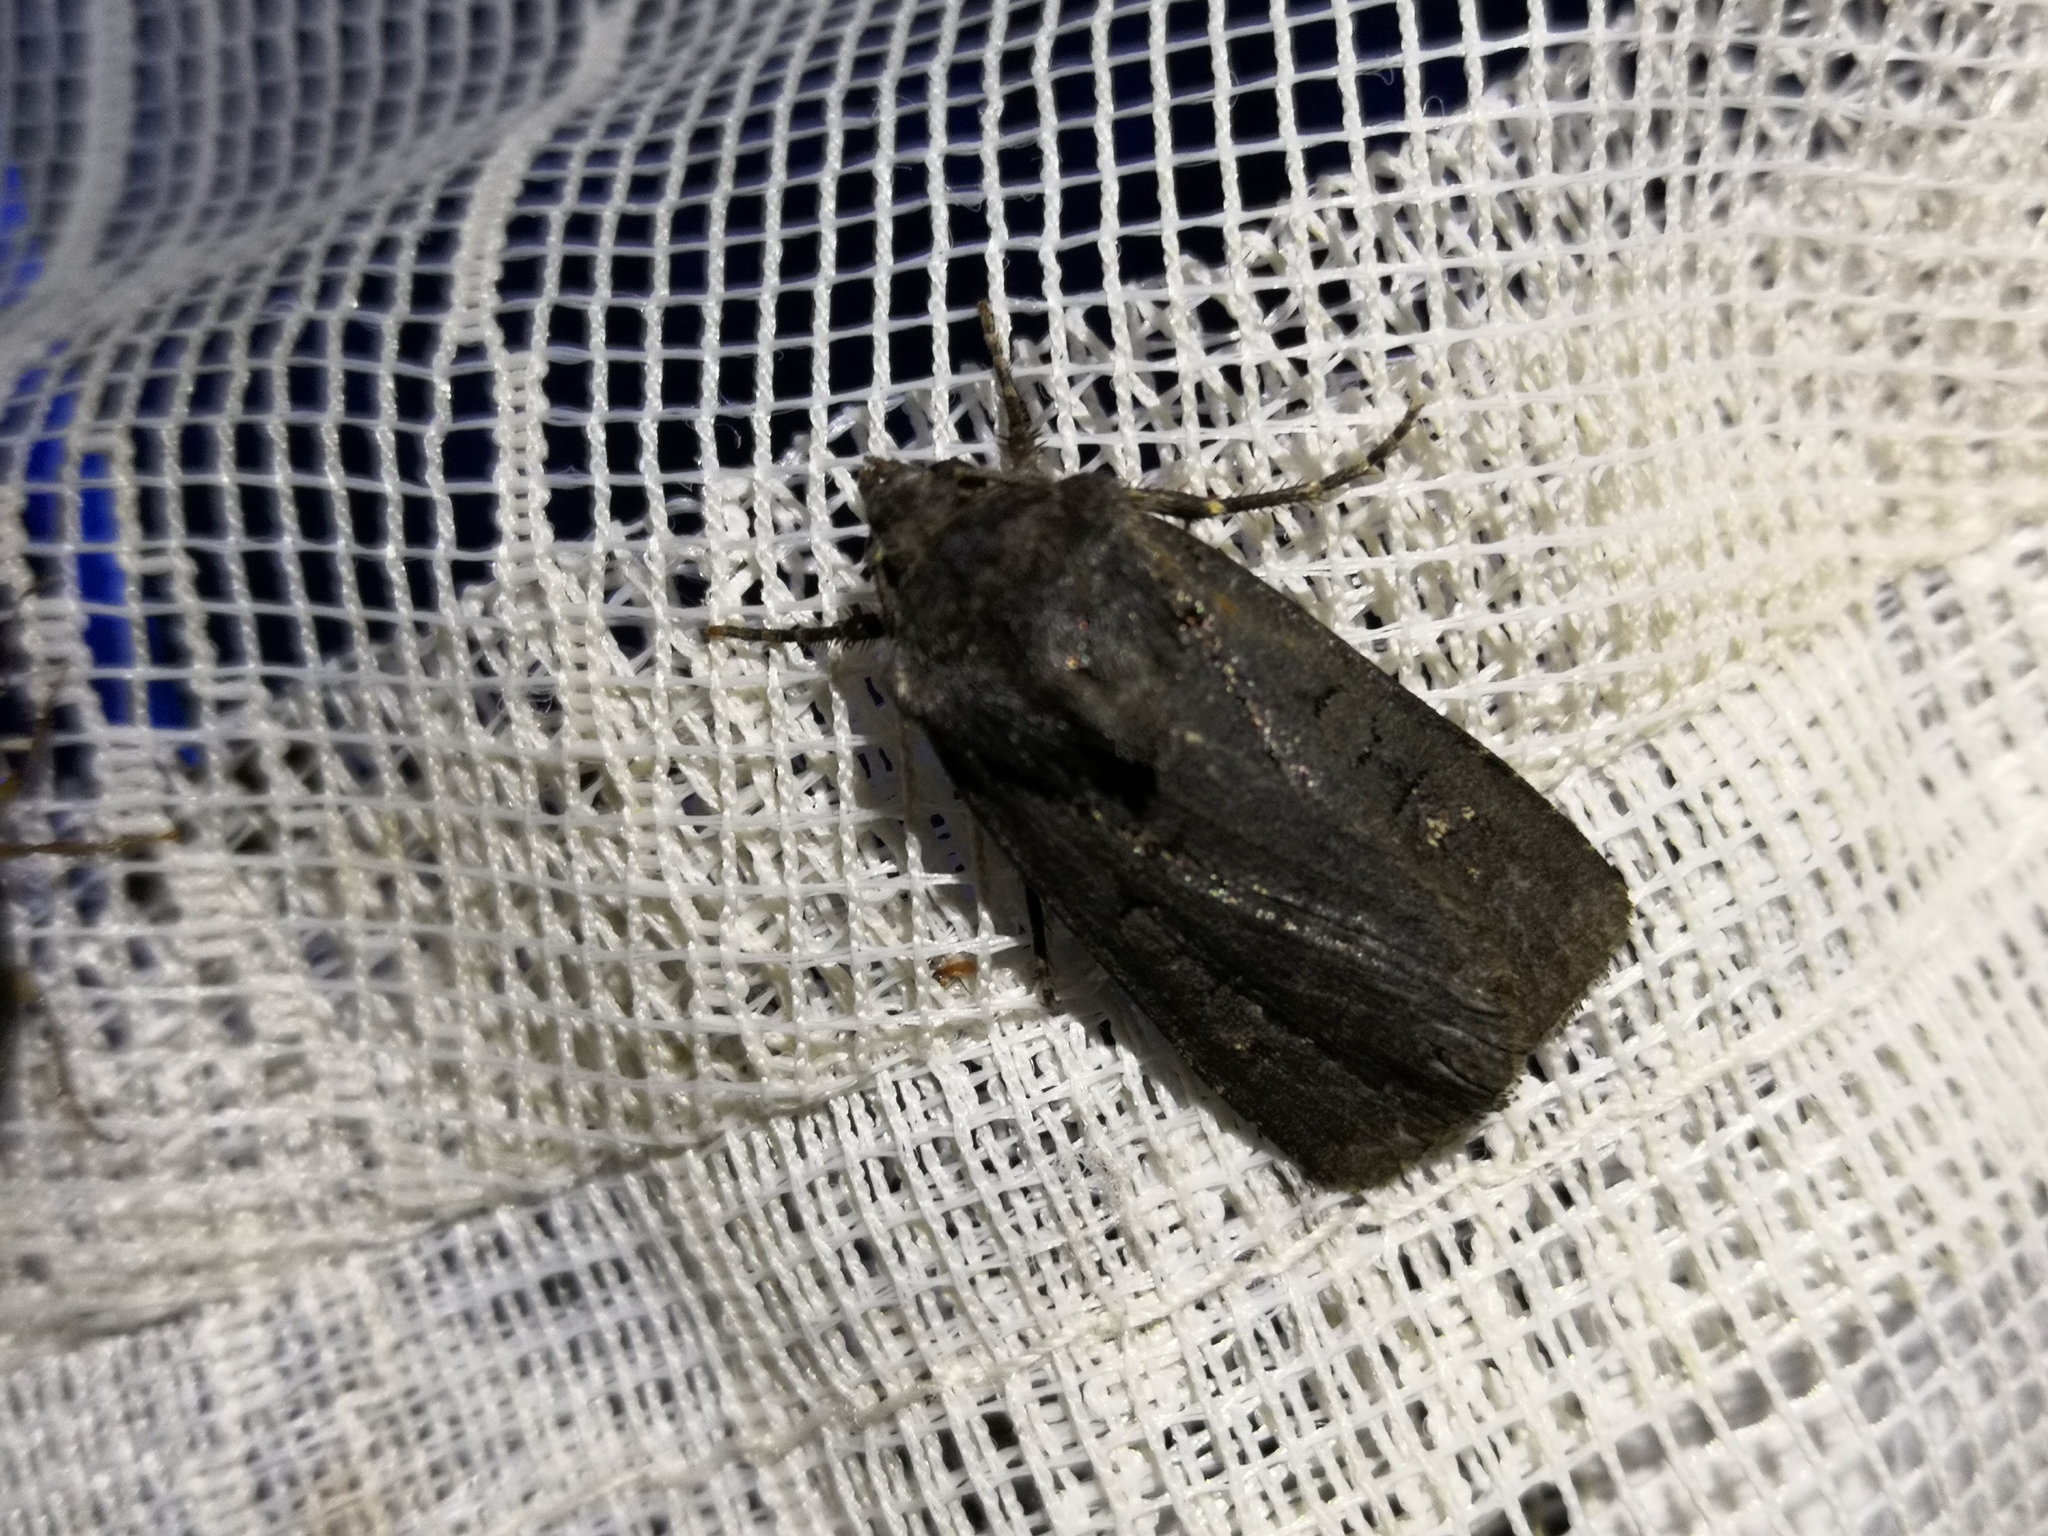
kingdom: Animalia
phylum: Arthropoda
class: Insecta
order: Lepidoptera
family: Noctuidae
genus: Euxoa
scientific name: Euxoa nigricans
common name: Garden dart
